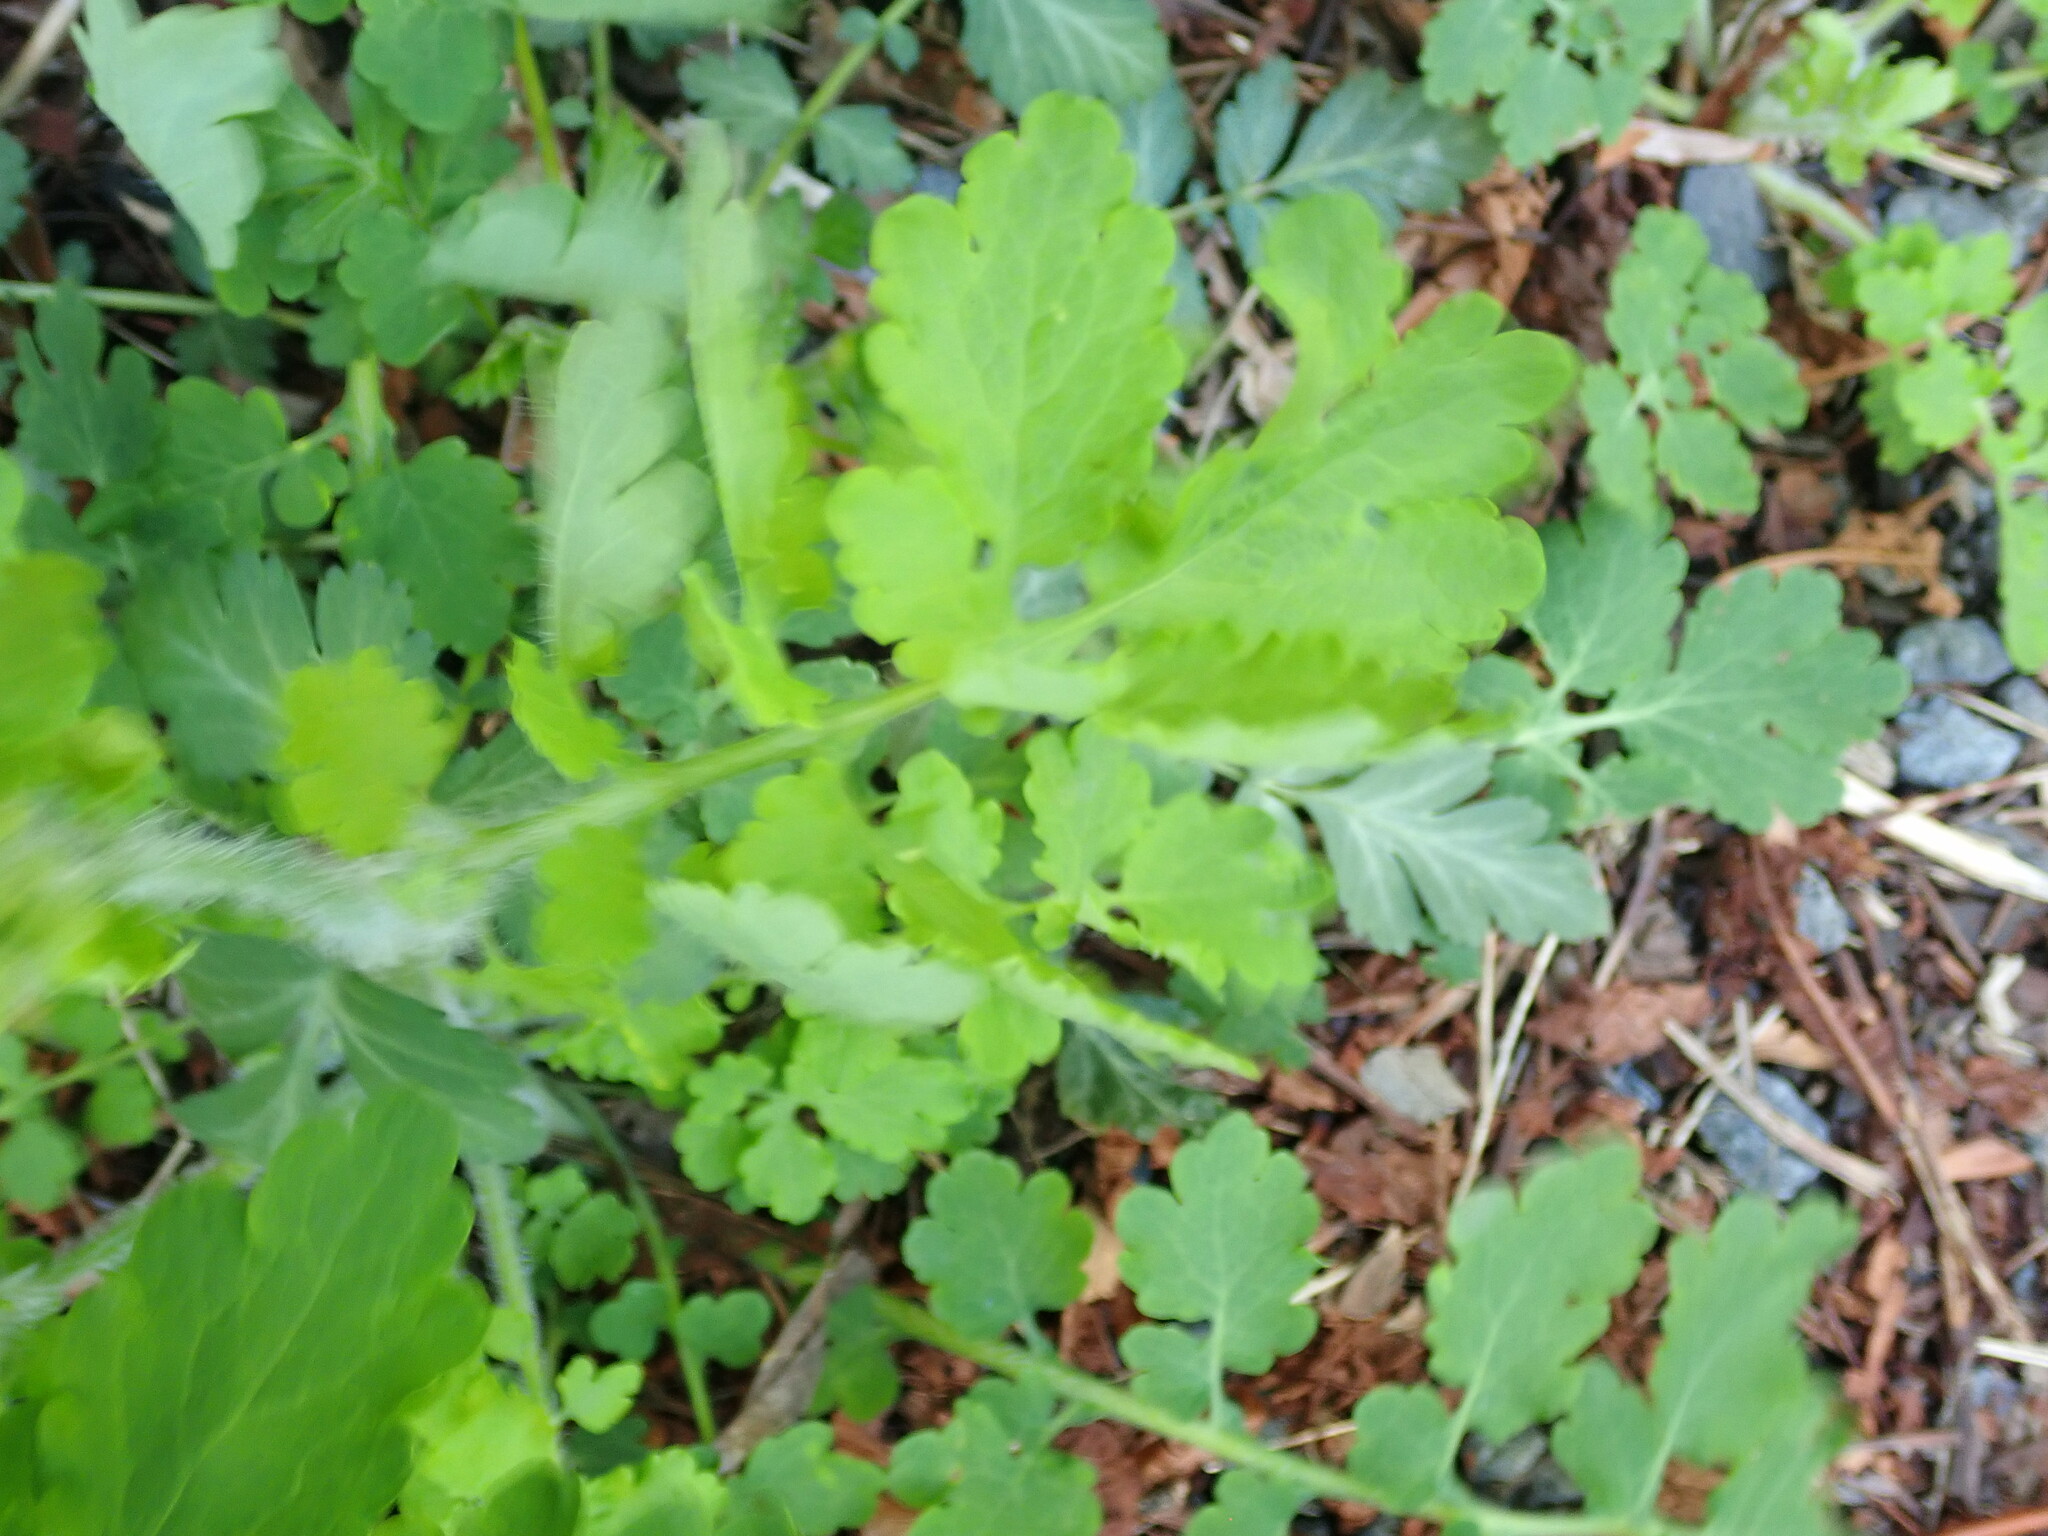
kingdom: Plantae
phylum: Tracheophyta
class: Magnoliopsida
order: Ranunculales
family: Papaveraceae
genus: Chelidonium
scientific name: Chelidonium majus
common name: Greater celandine
